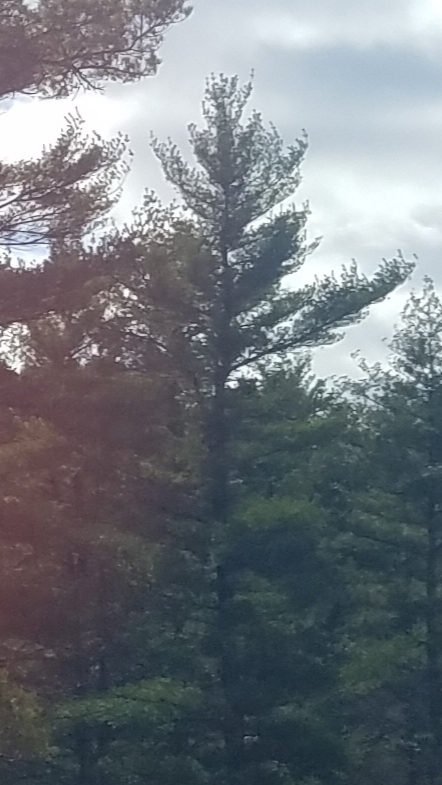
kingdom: Plantae
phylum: Tracheophyta
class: Pinopsida
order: Pinales
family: Pinaceae
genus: Pinus
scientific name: Pinus strobus
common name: Weymouth pine
